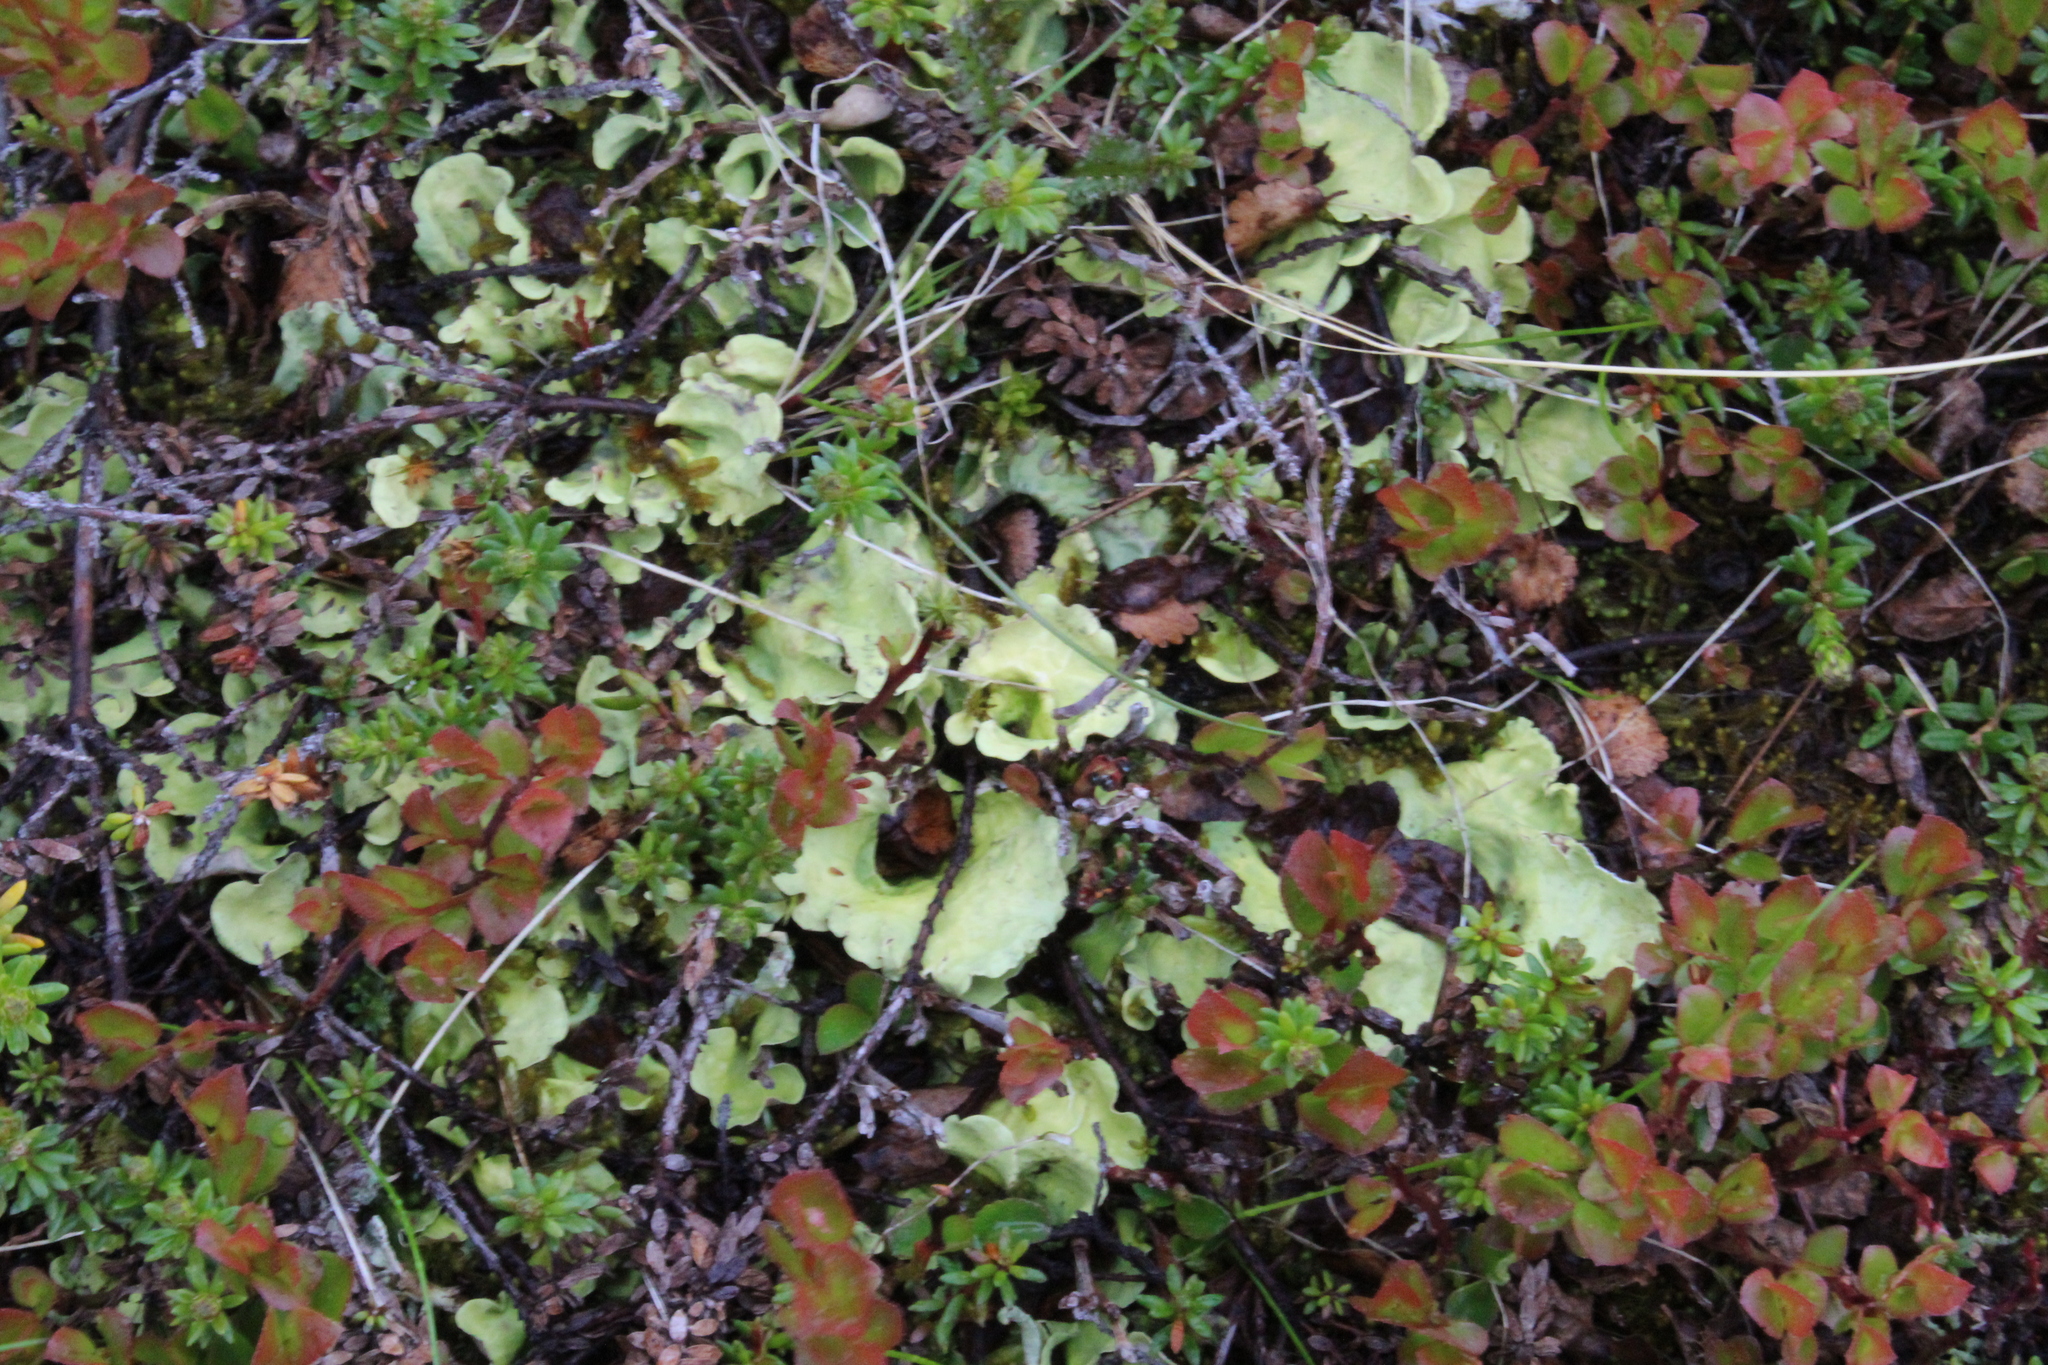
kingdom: Fungi
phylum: Ascomycota
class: Lecanoromycetes
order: Peltigerales
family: Nephromataceae
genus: Nephroma
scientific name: Nephroma arcticum
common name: Arctic kidney-lichen
